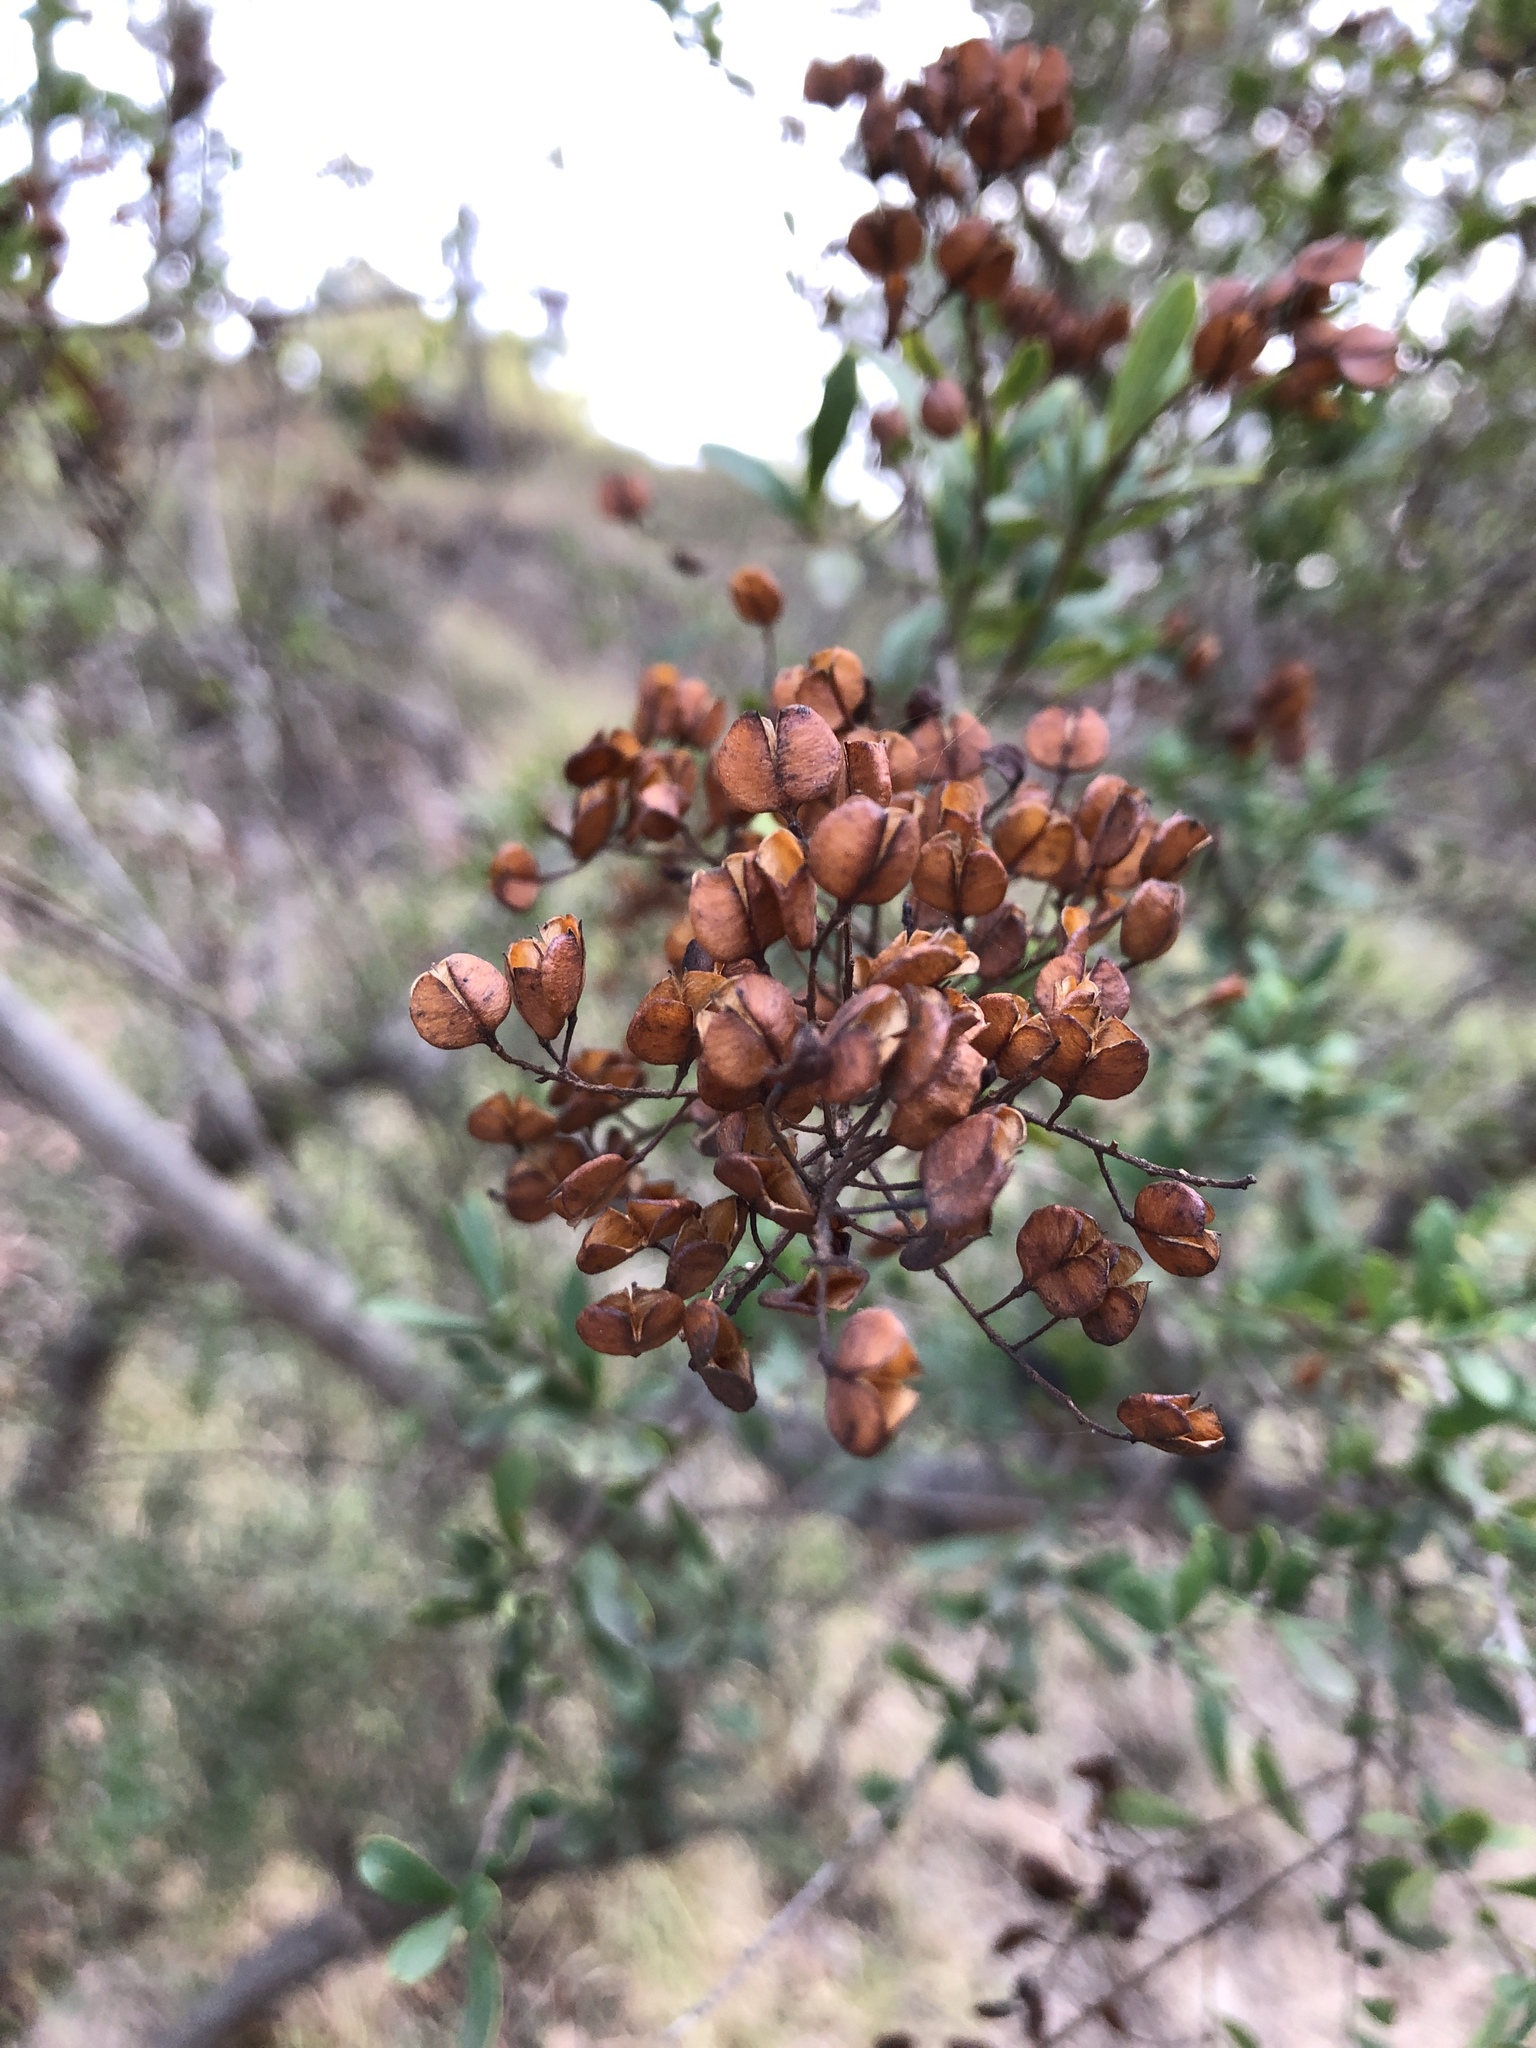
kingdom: Plantae
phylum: Tracheophyta
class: Magnoliopsida
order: Apiales
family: Pittosporaceae
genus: Bursaria
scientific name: Bursaria spinosa
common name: Australian blackthorn
